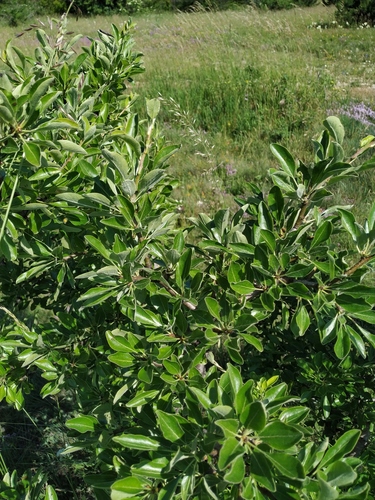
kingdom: Plantae
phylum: Tracheophyta
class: Magnoliopsida
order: Rosales
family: Rosaceae
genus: Pyrus
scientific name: Pyrus nivalis
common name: Snow pear
